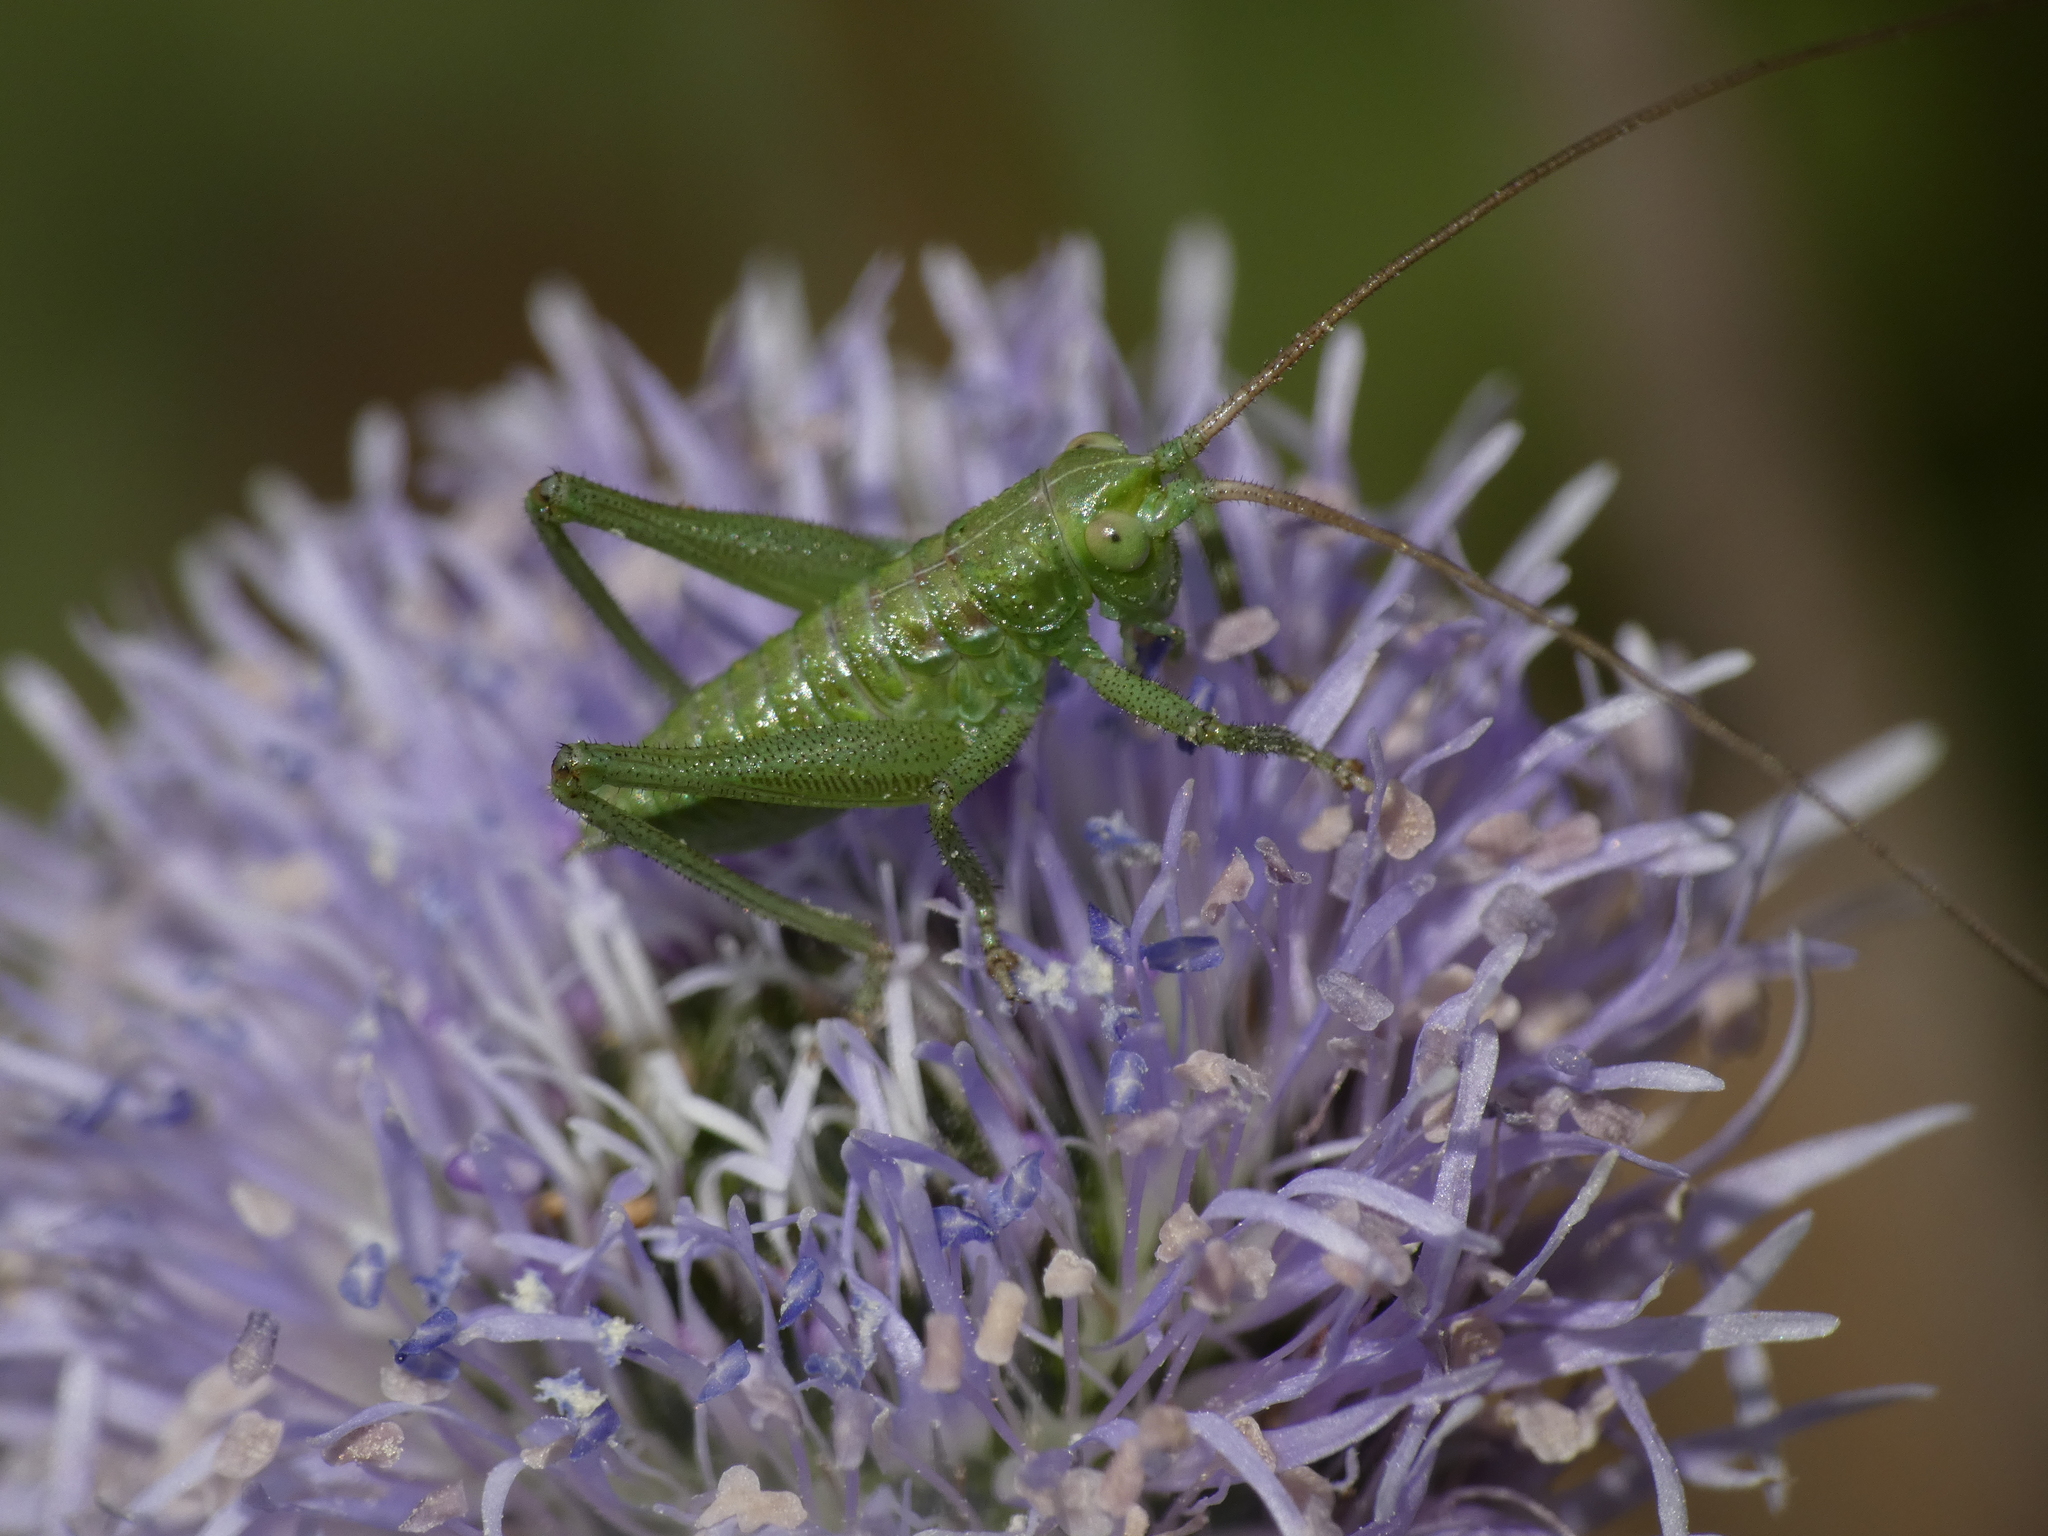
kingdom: Animalia
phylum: Arthropoda
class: Insecta
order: Orthoptera
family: Tettigoniidae
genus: Tettigonia
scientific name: Tettigonia viridissima
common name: Great green bush-cricket
